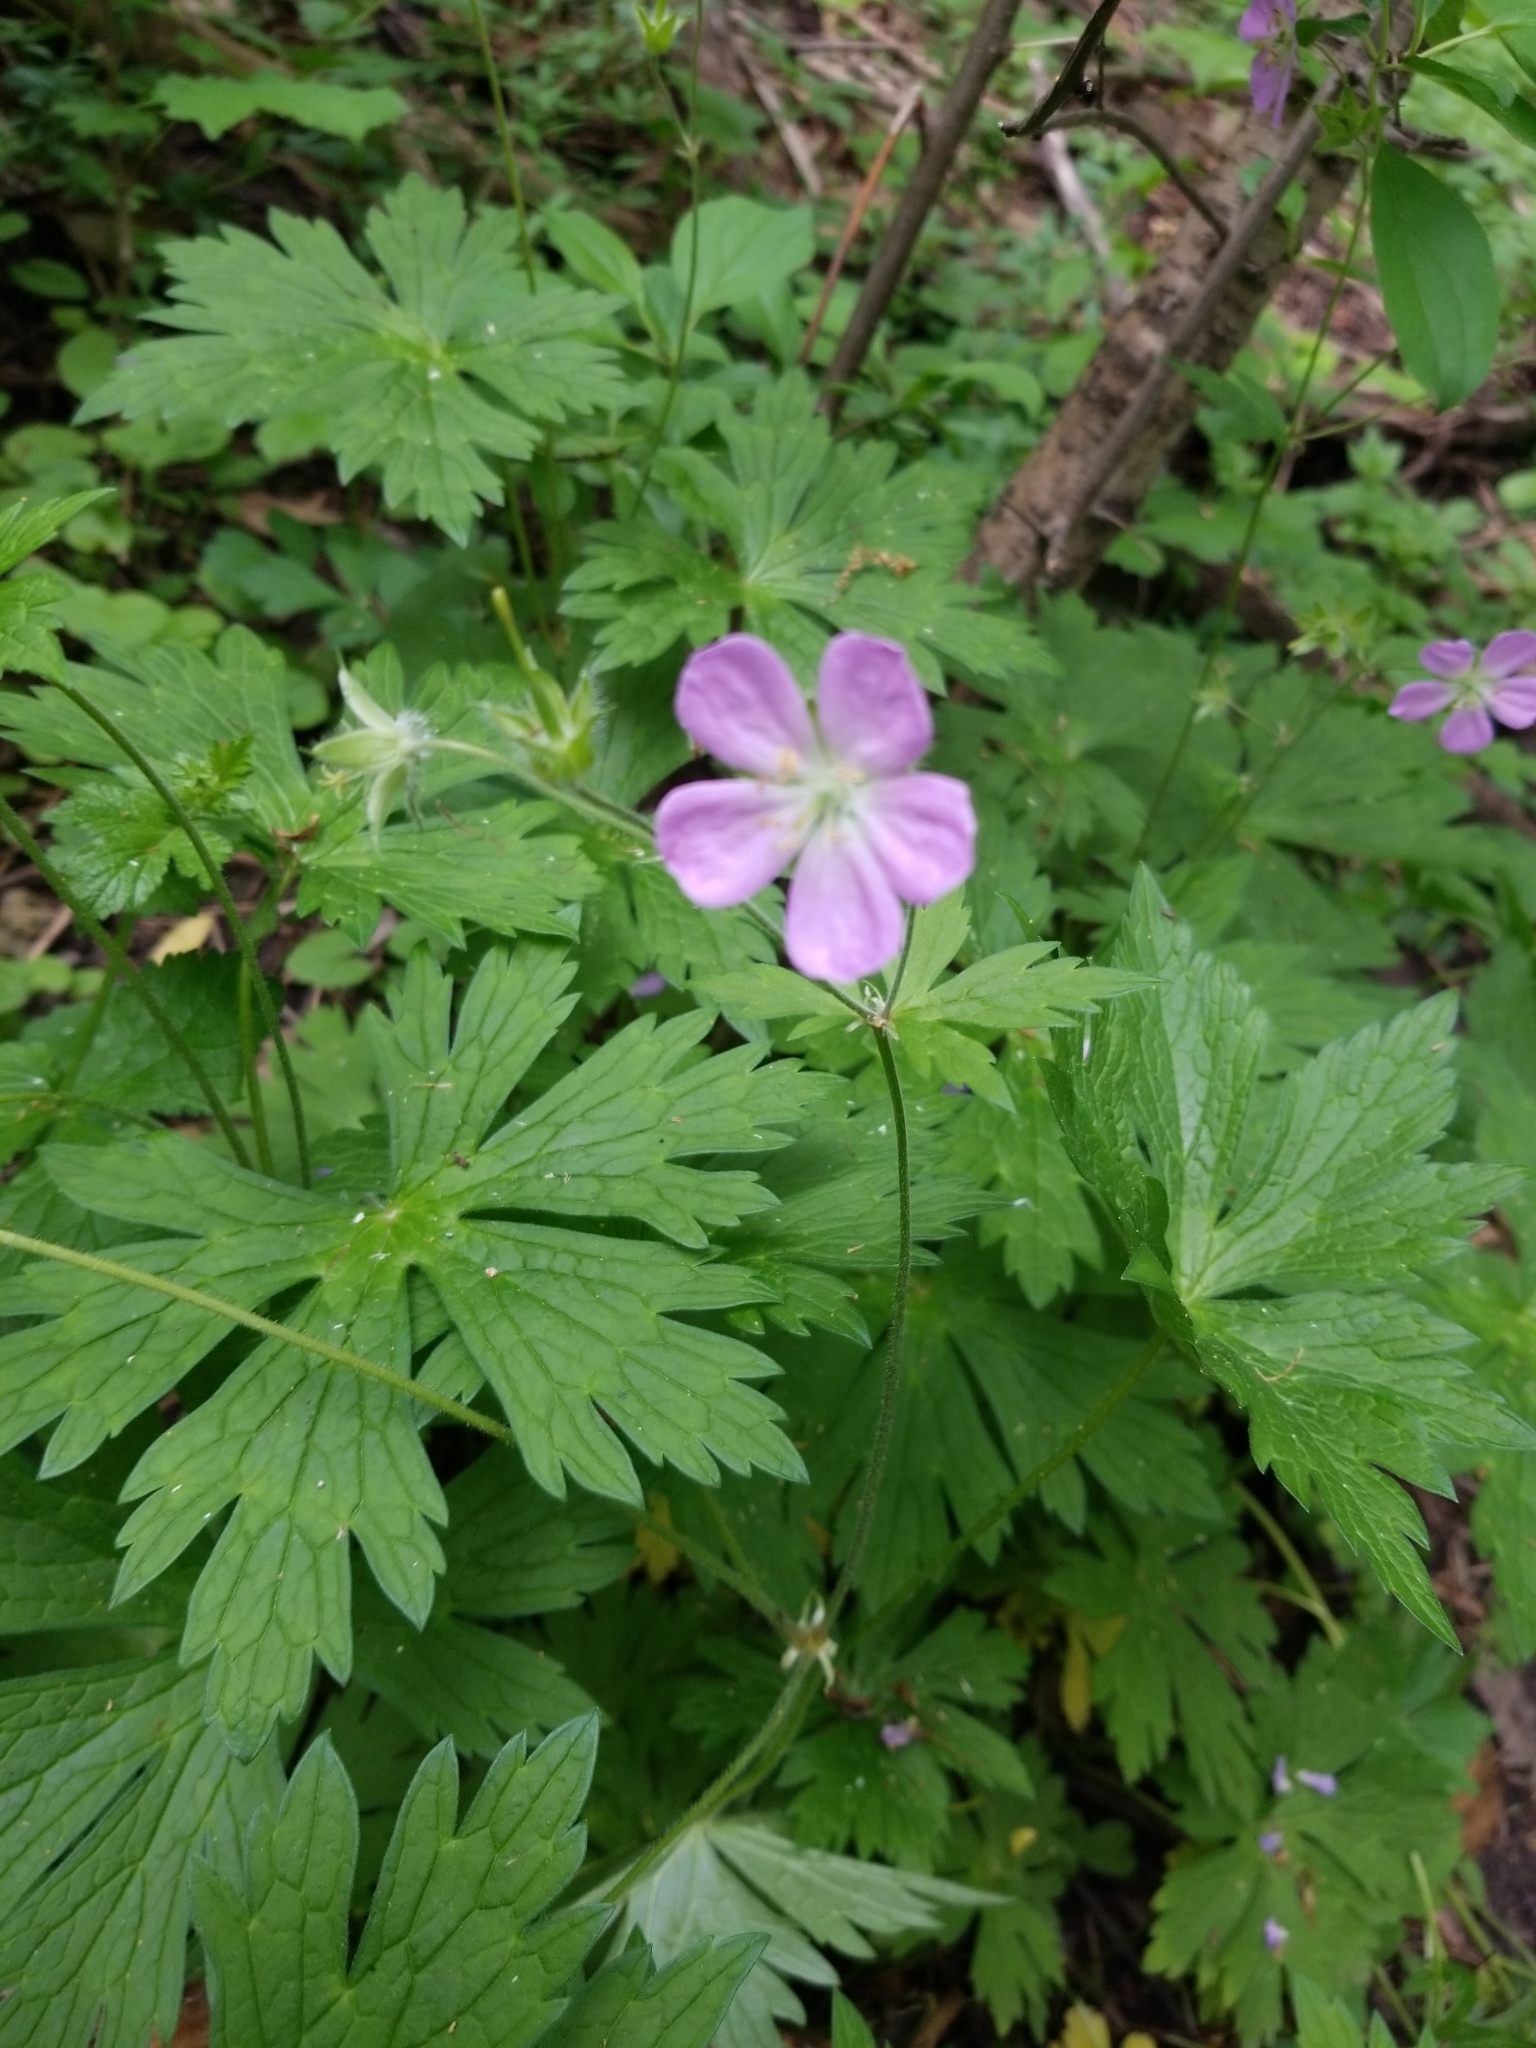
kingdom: Plantae
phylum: Tracheophyta
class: Magnoliopsida
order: Geraniales
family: Geraniaceae
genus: Geranium
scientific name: Geranium maculatum
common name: Spotted geranium
